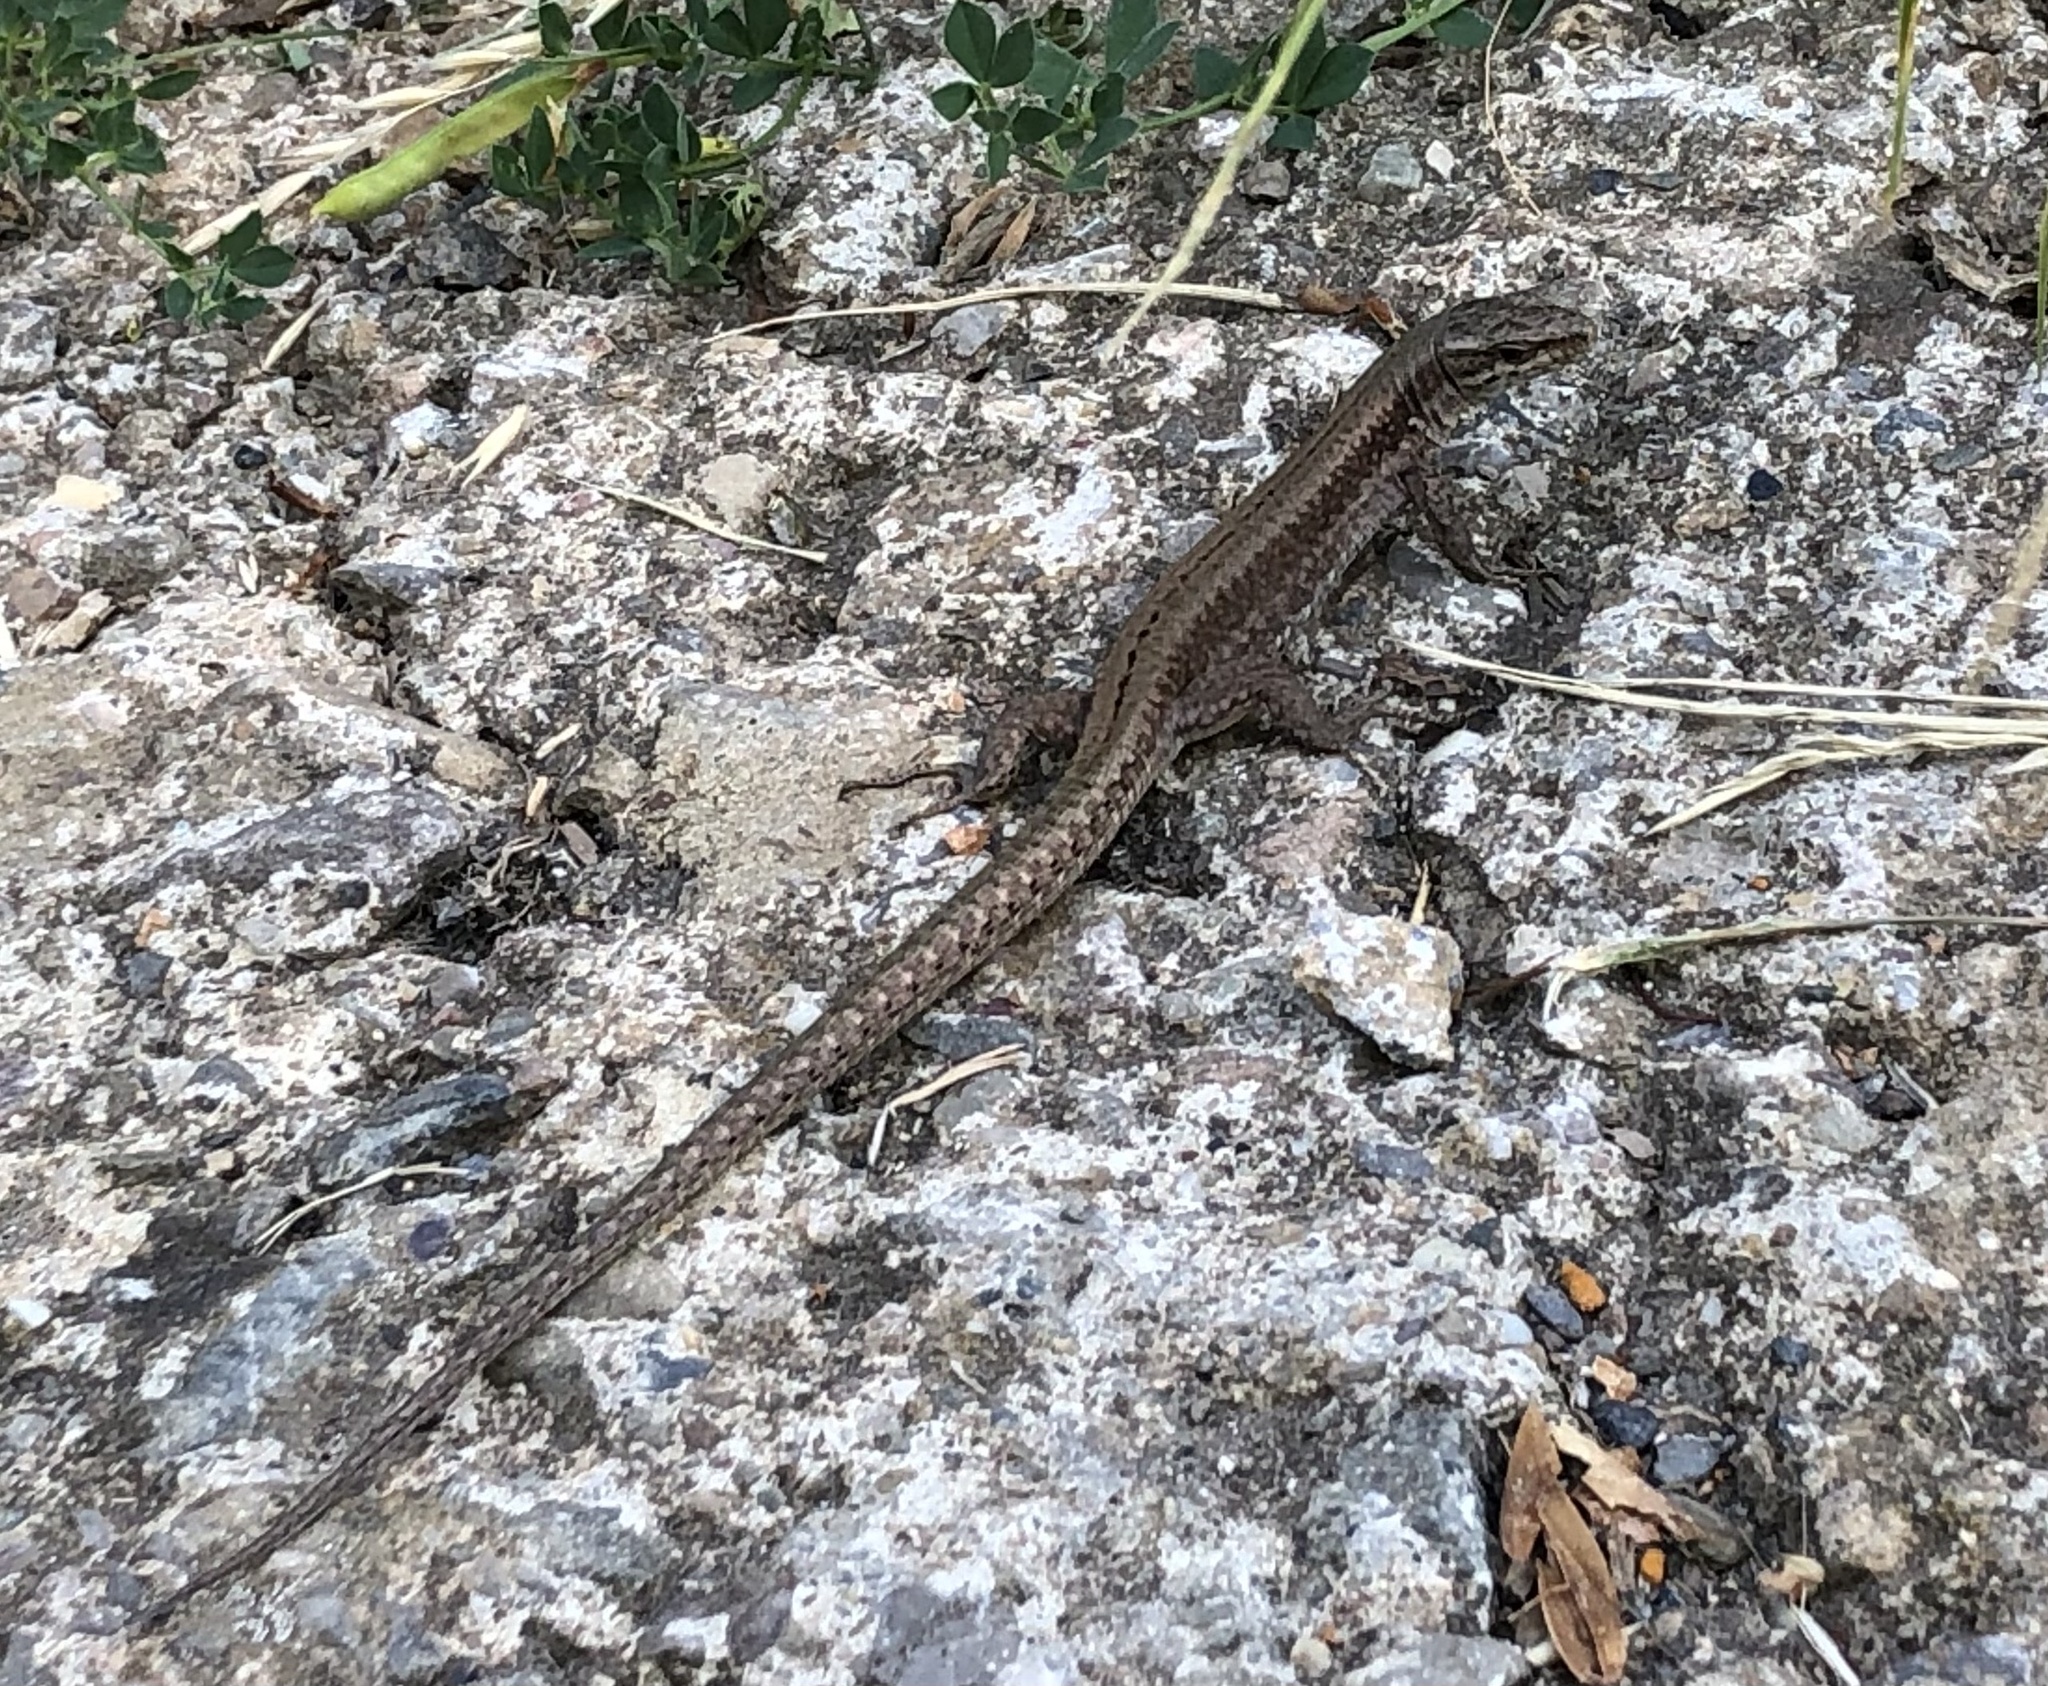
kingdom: Animalia
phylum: Chordata
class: Squamata
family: Lacertidae
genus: Podarcis
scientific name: Podarcis muralis
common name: Common wall lizard
